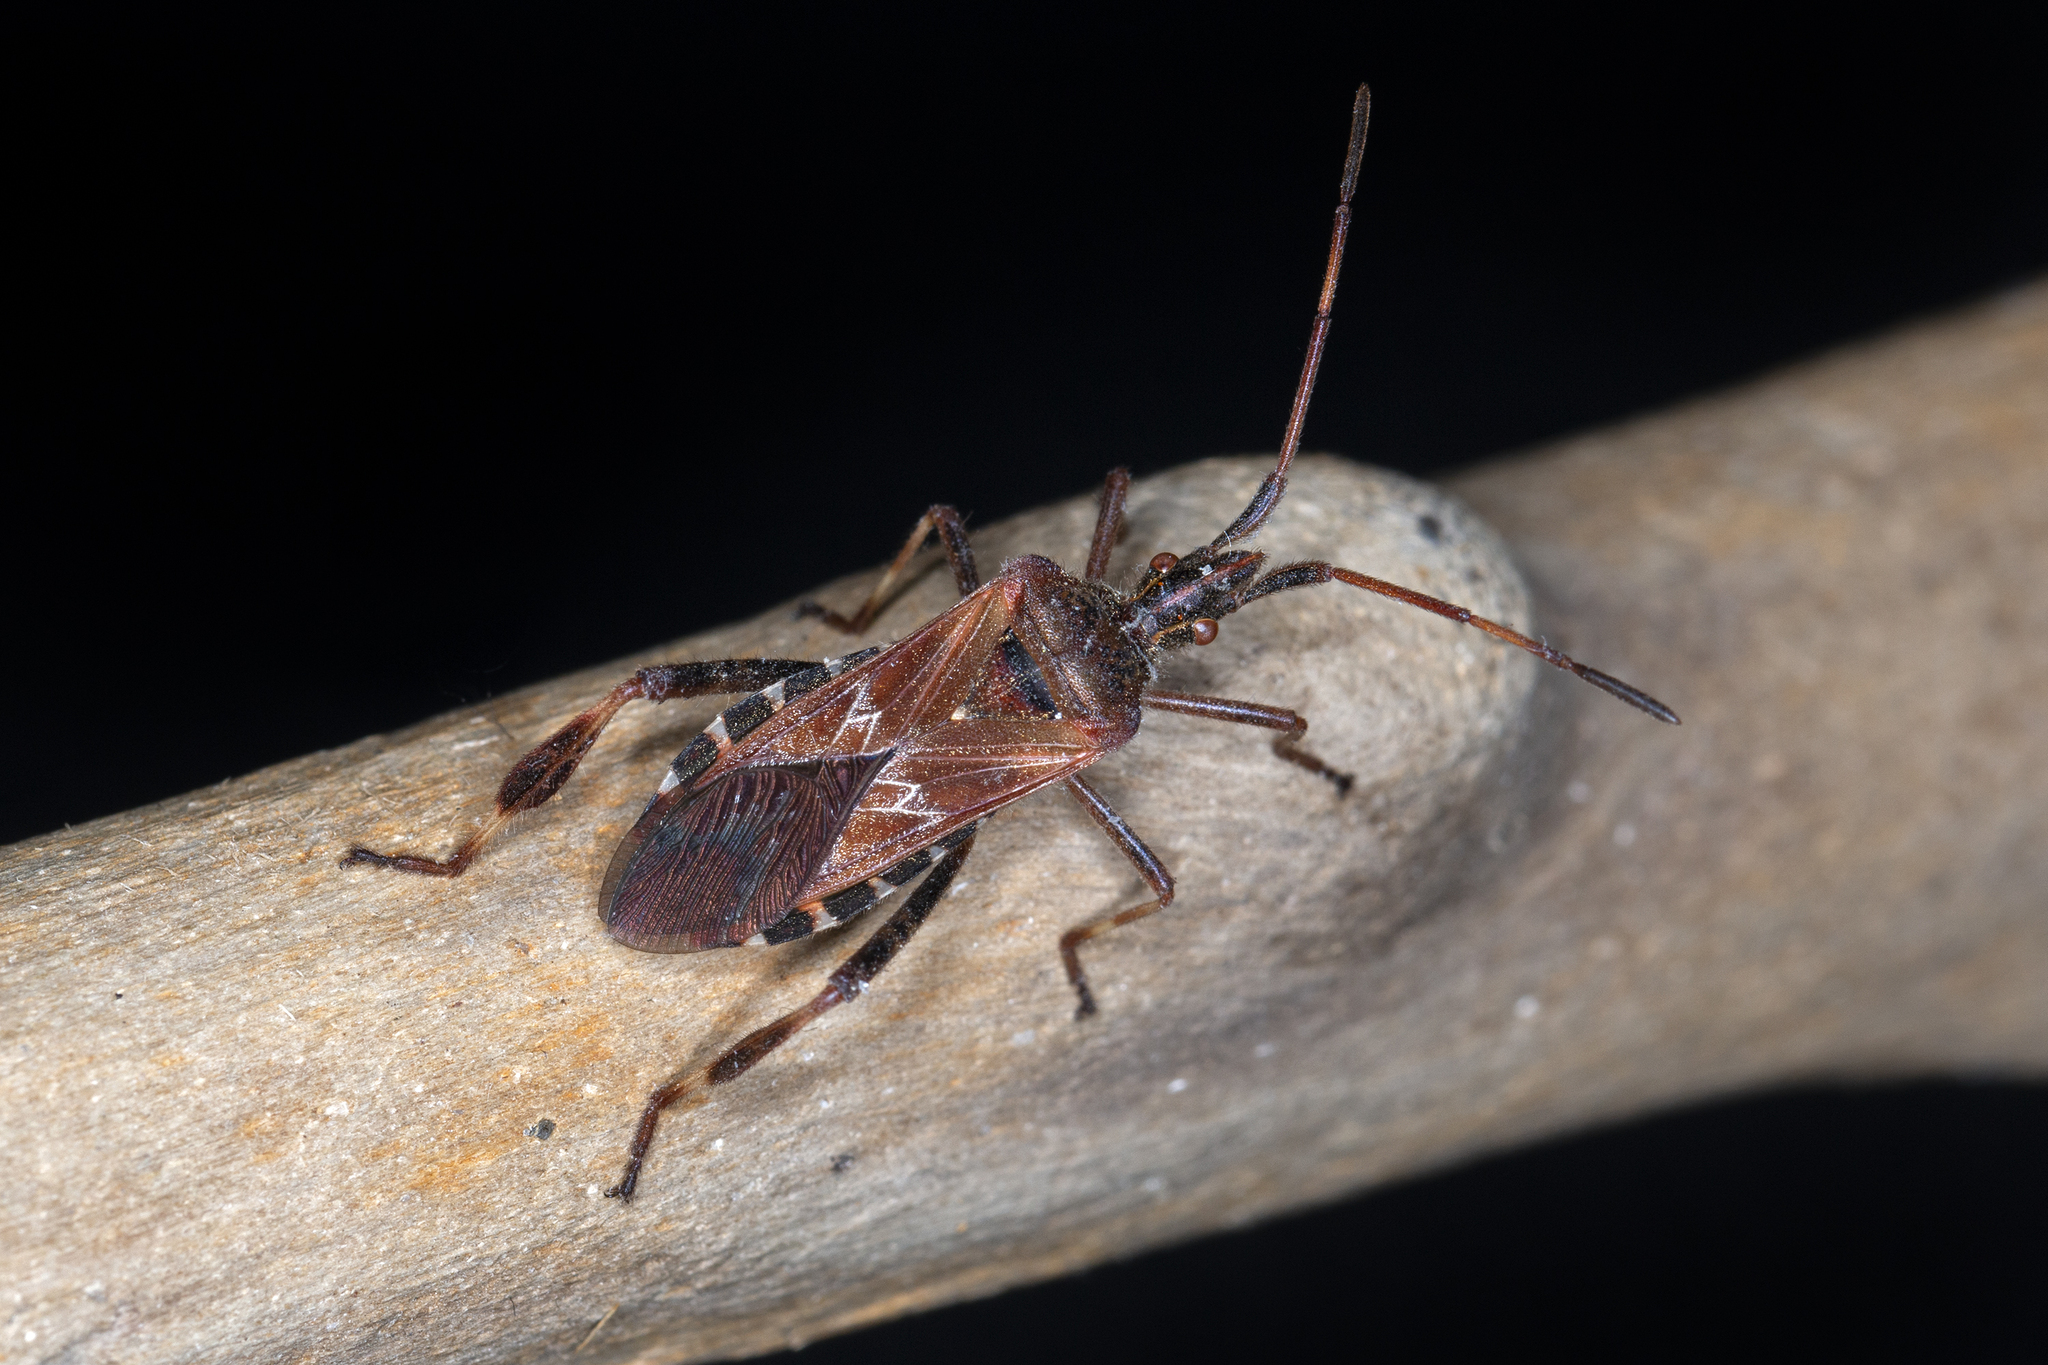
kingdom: Animalia
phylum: Arthropoda
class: Insecta
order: Hemiptera
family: Coreidae
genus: Leptoglossus
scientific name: Leptoglossus occidentalis
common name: Western conifer-seed bug
